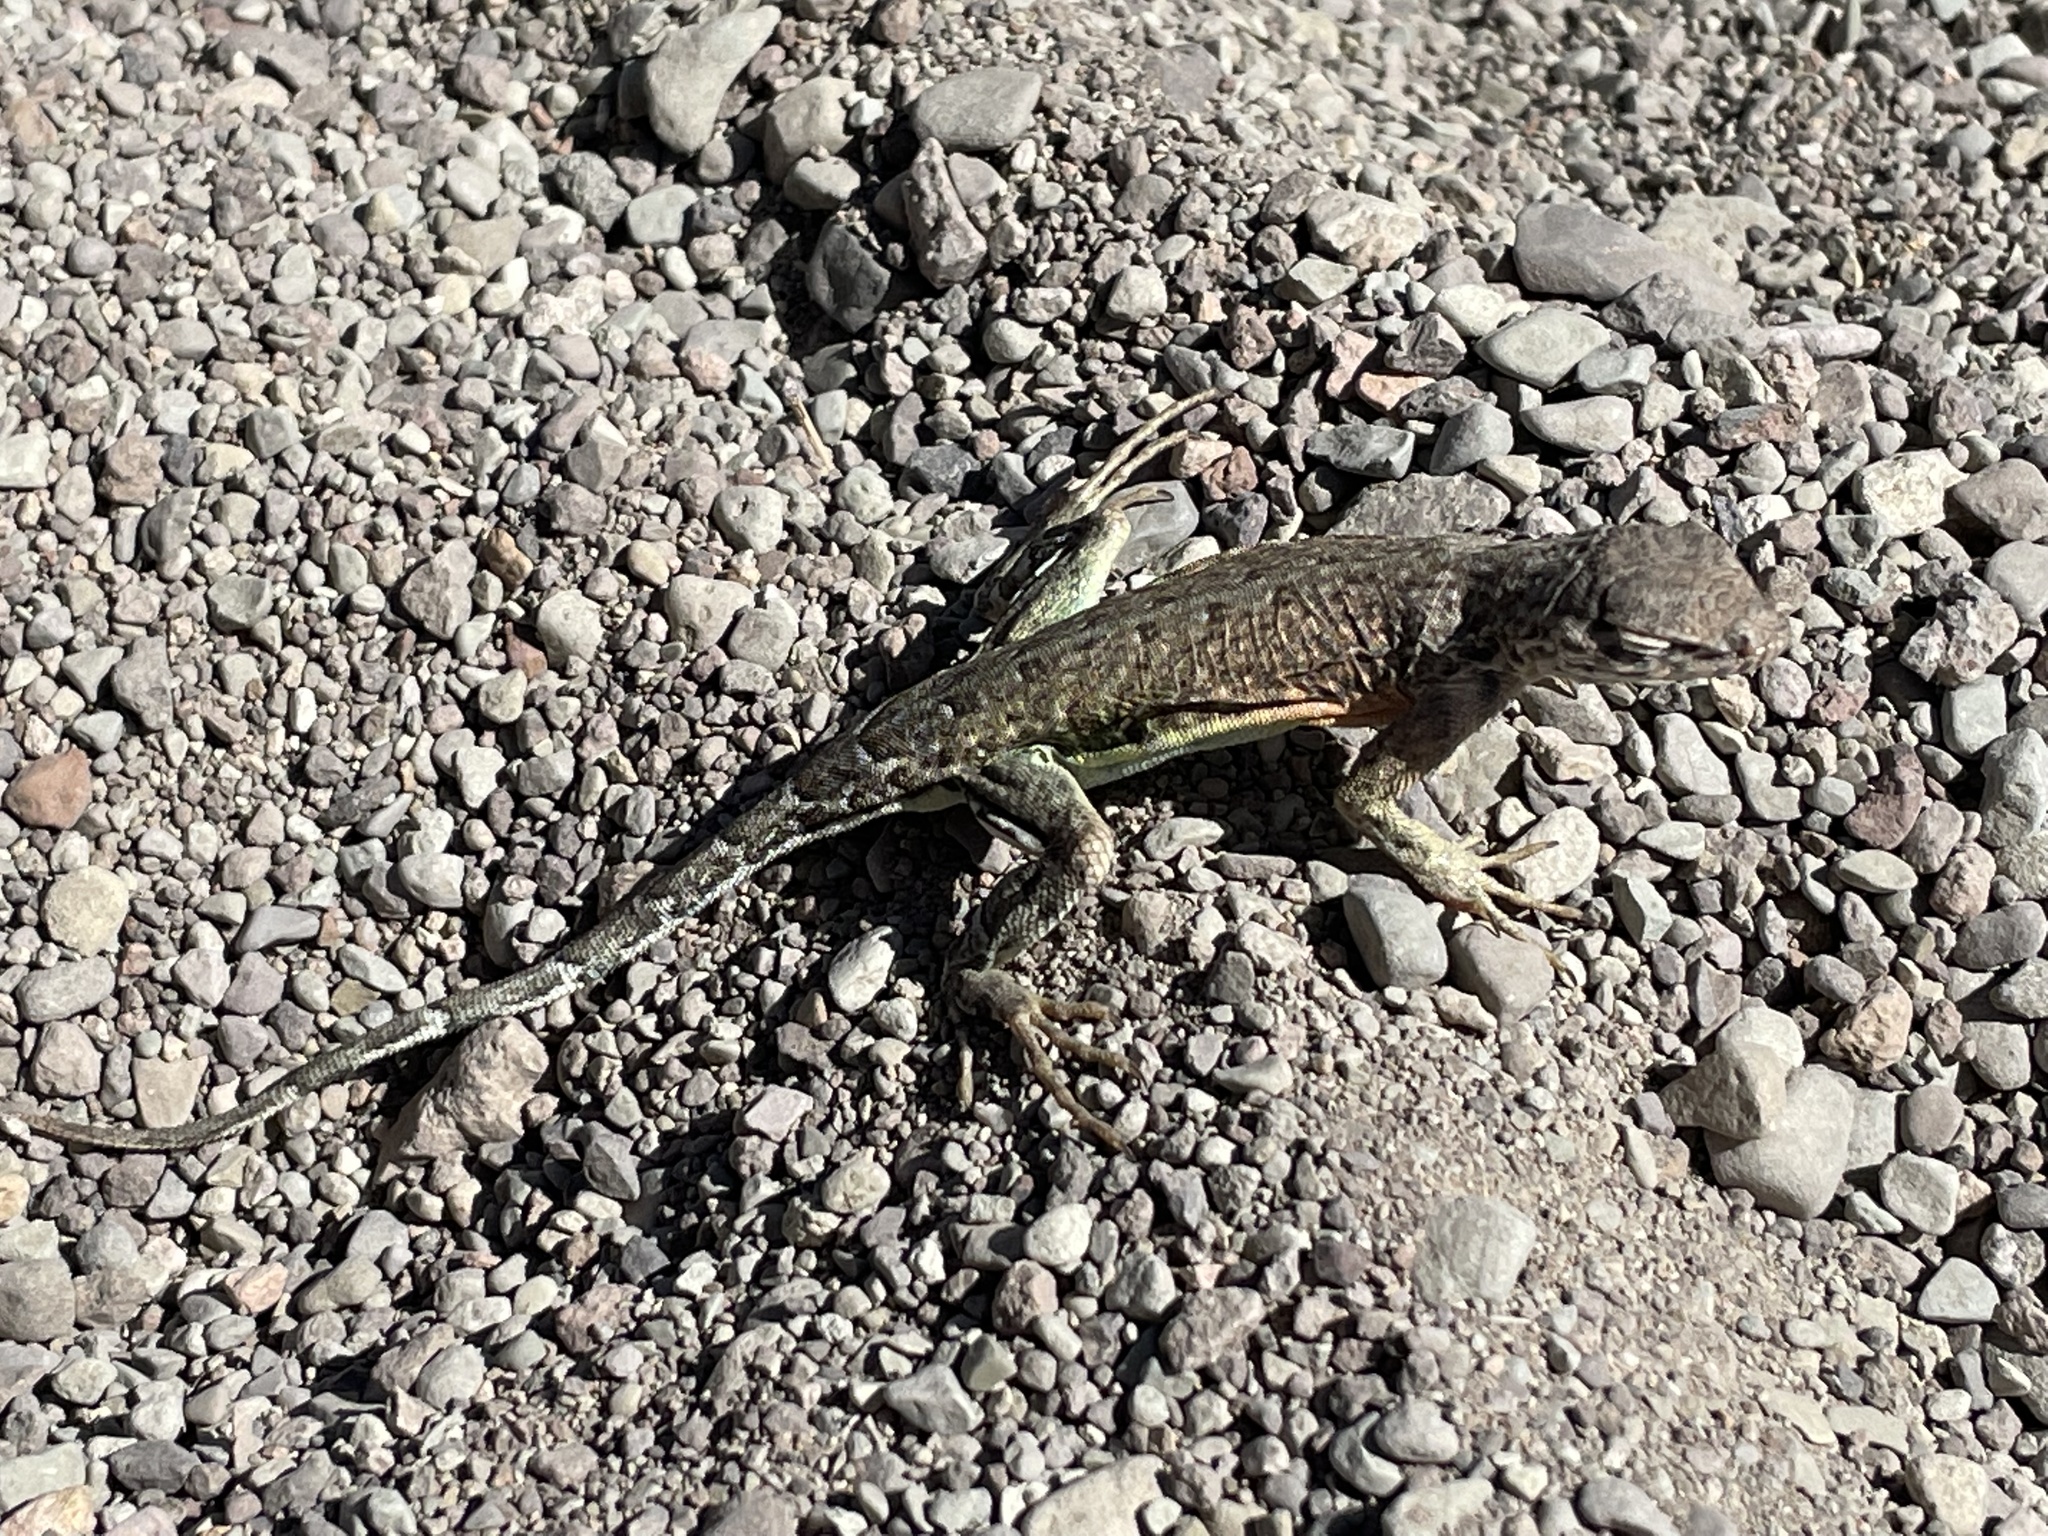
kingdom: Animalia
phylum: Chordata
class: Squamata
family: Phrynosomatidae
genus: Cophosaurus
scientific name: Cophosaurus texanus
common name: Greater earless lizard
